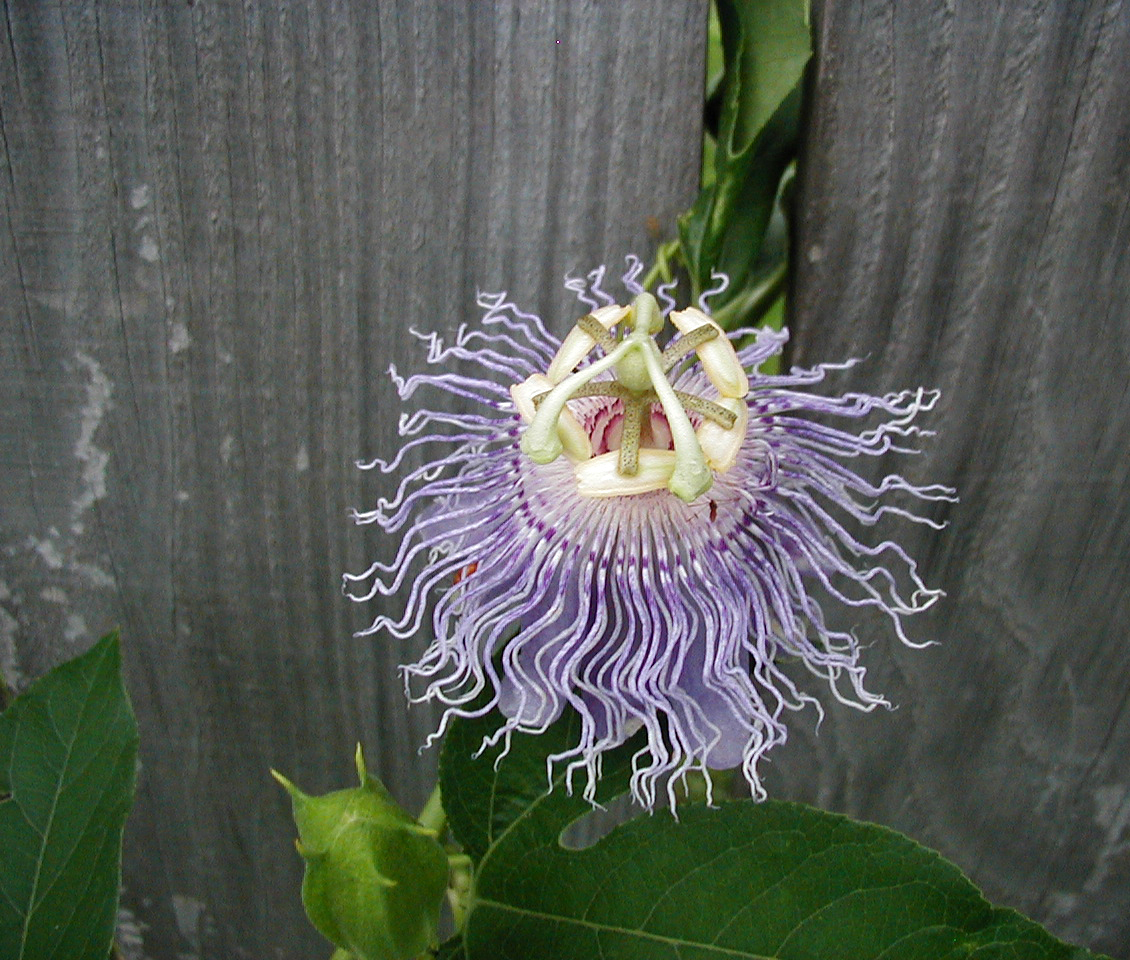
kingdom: Plantae
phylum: Tracheophyta
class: Magnoliopsida
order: Malpighiales
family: Passifloraceae
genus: Passiflora
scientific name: Passiflora incarnata
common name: Apricot-vine
